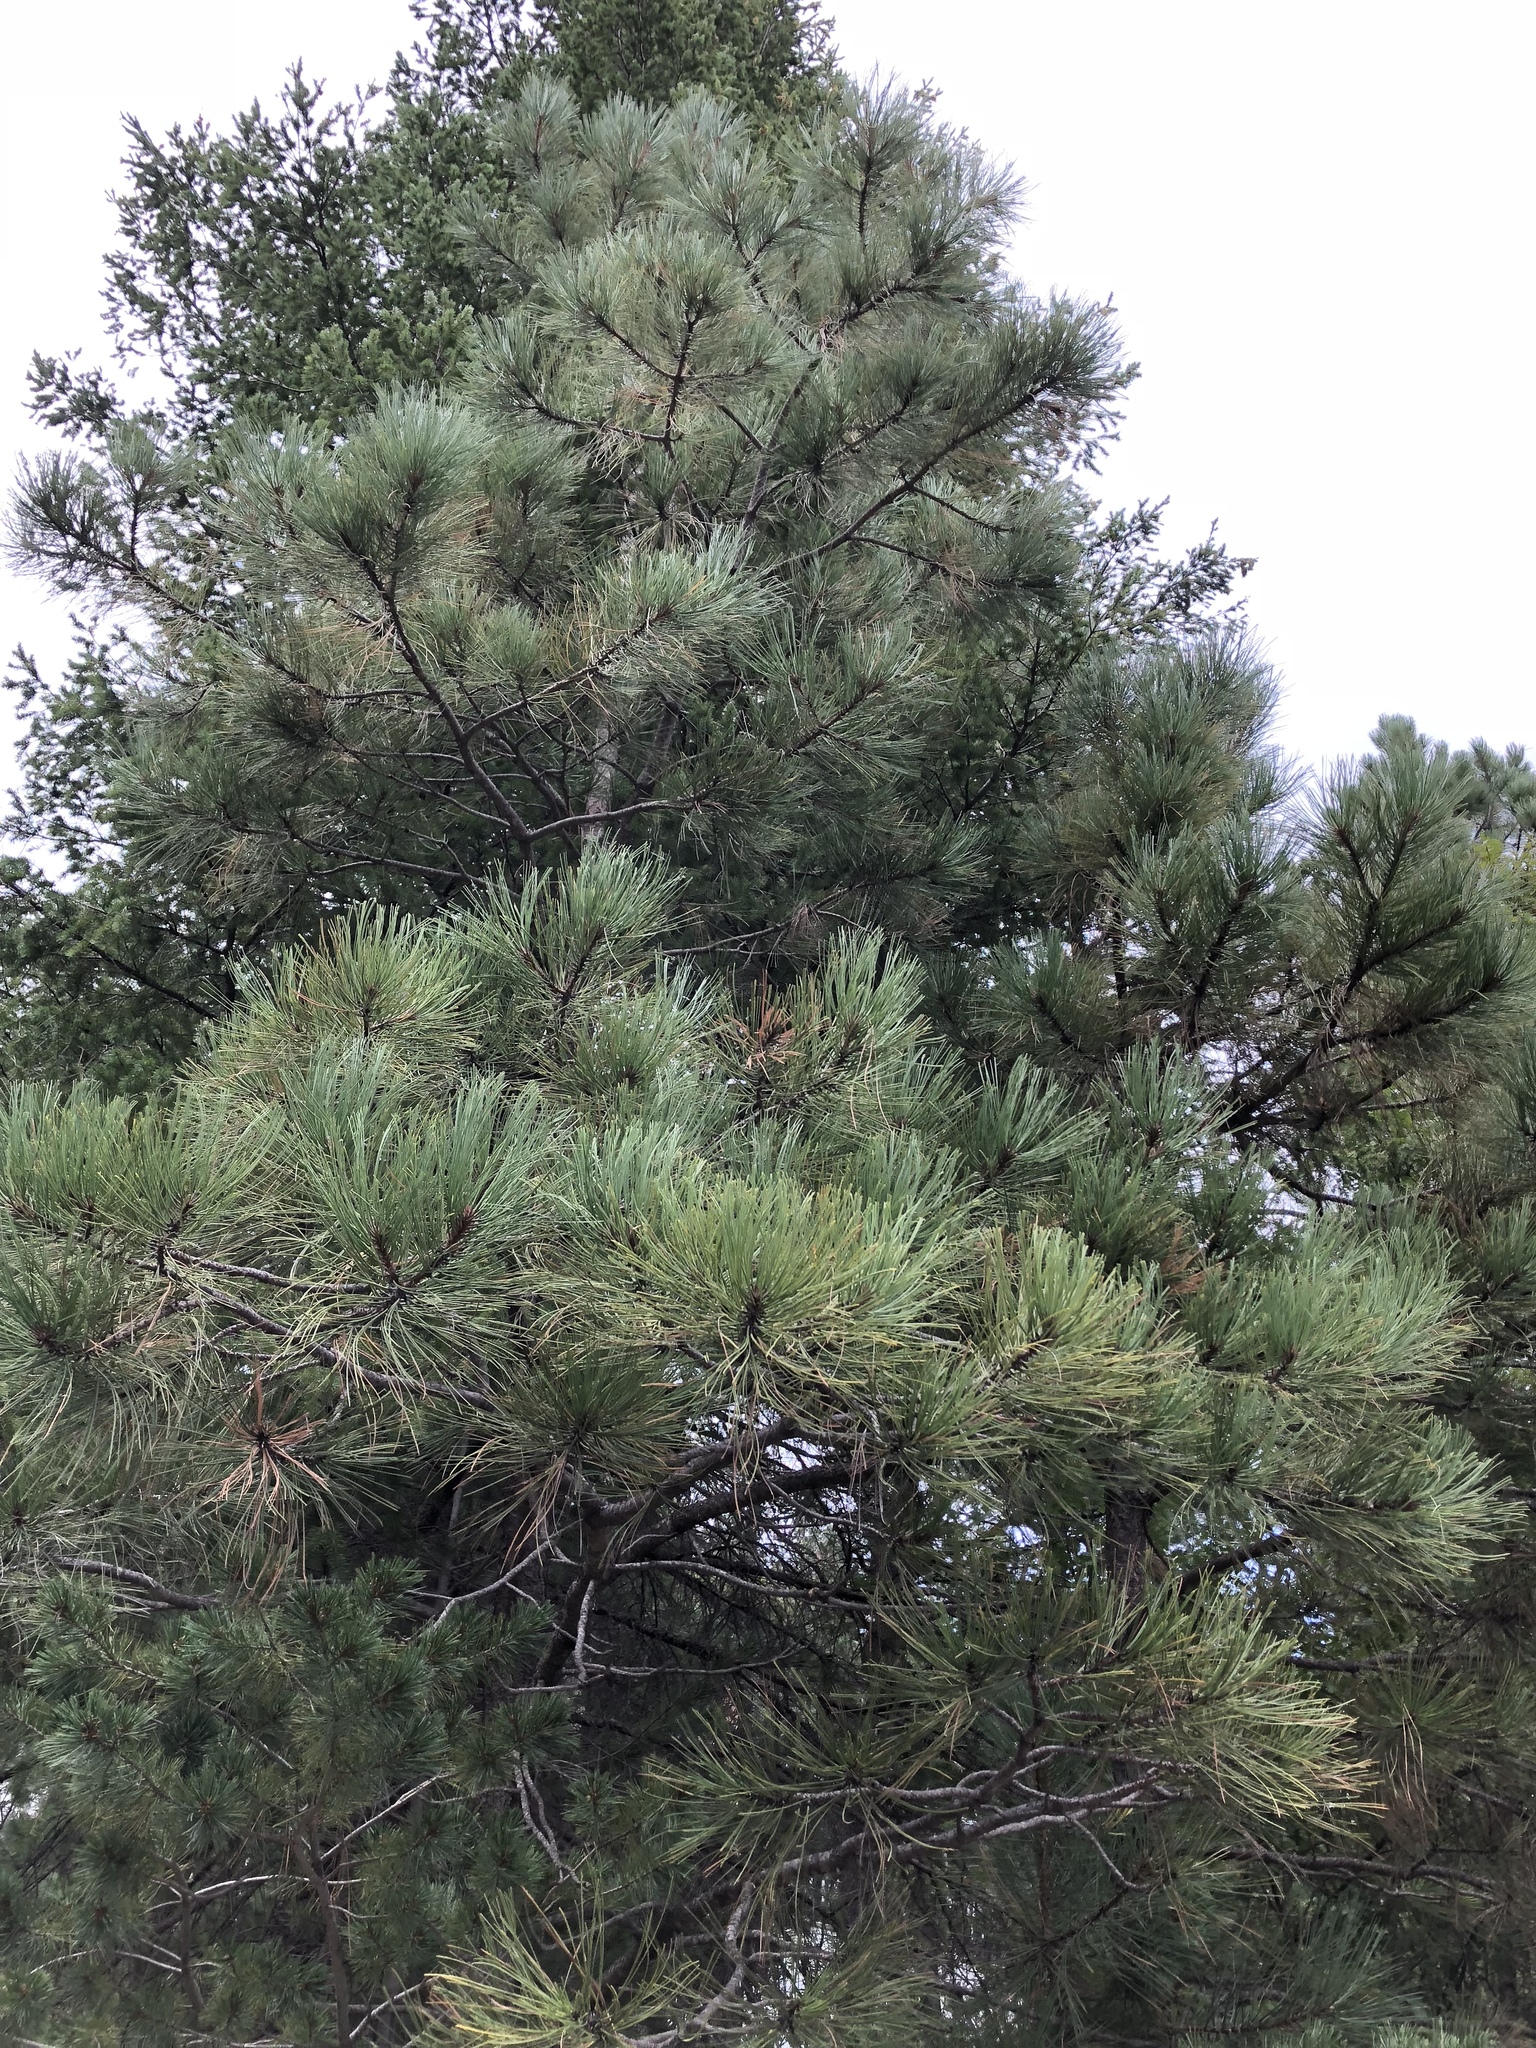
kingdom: Plantae
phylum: Tracheophyta
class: Pinopsida
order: Pinales
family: Pinaceae
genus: Pinus
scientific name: Pinus strobiformis
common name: Southwestern white pine
